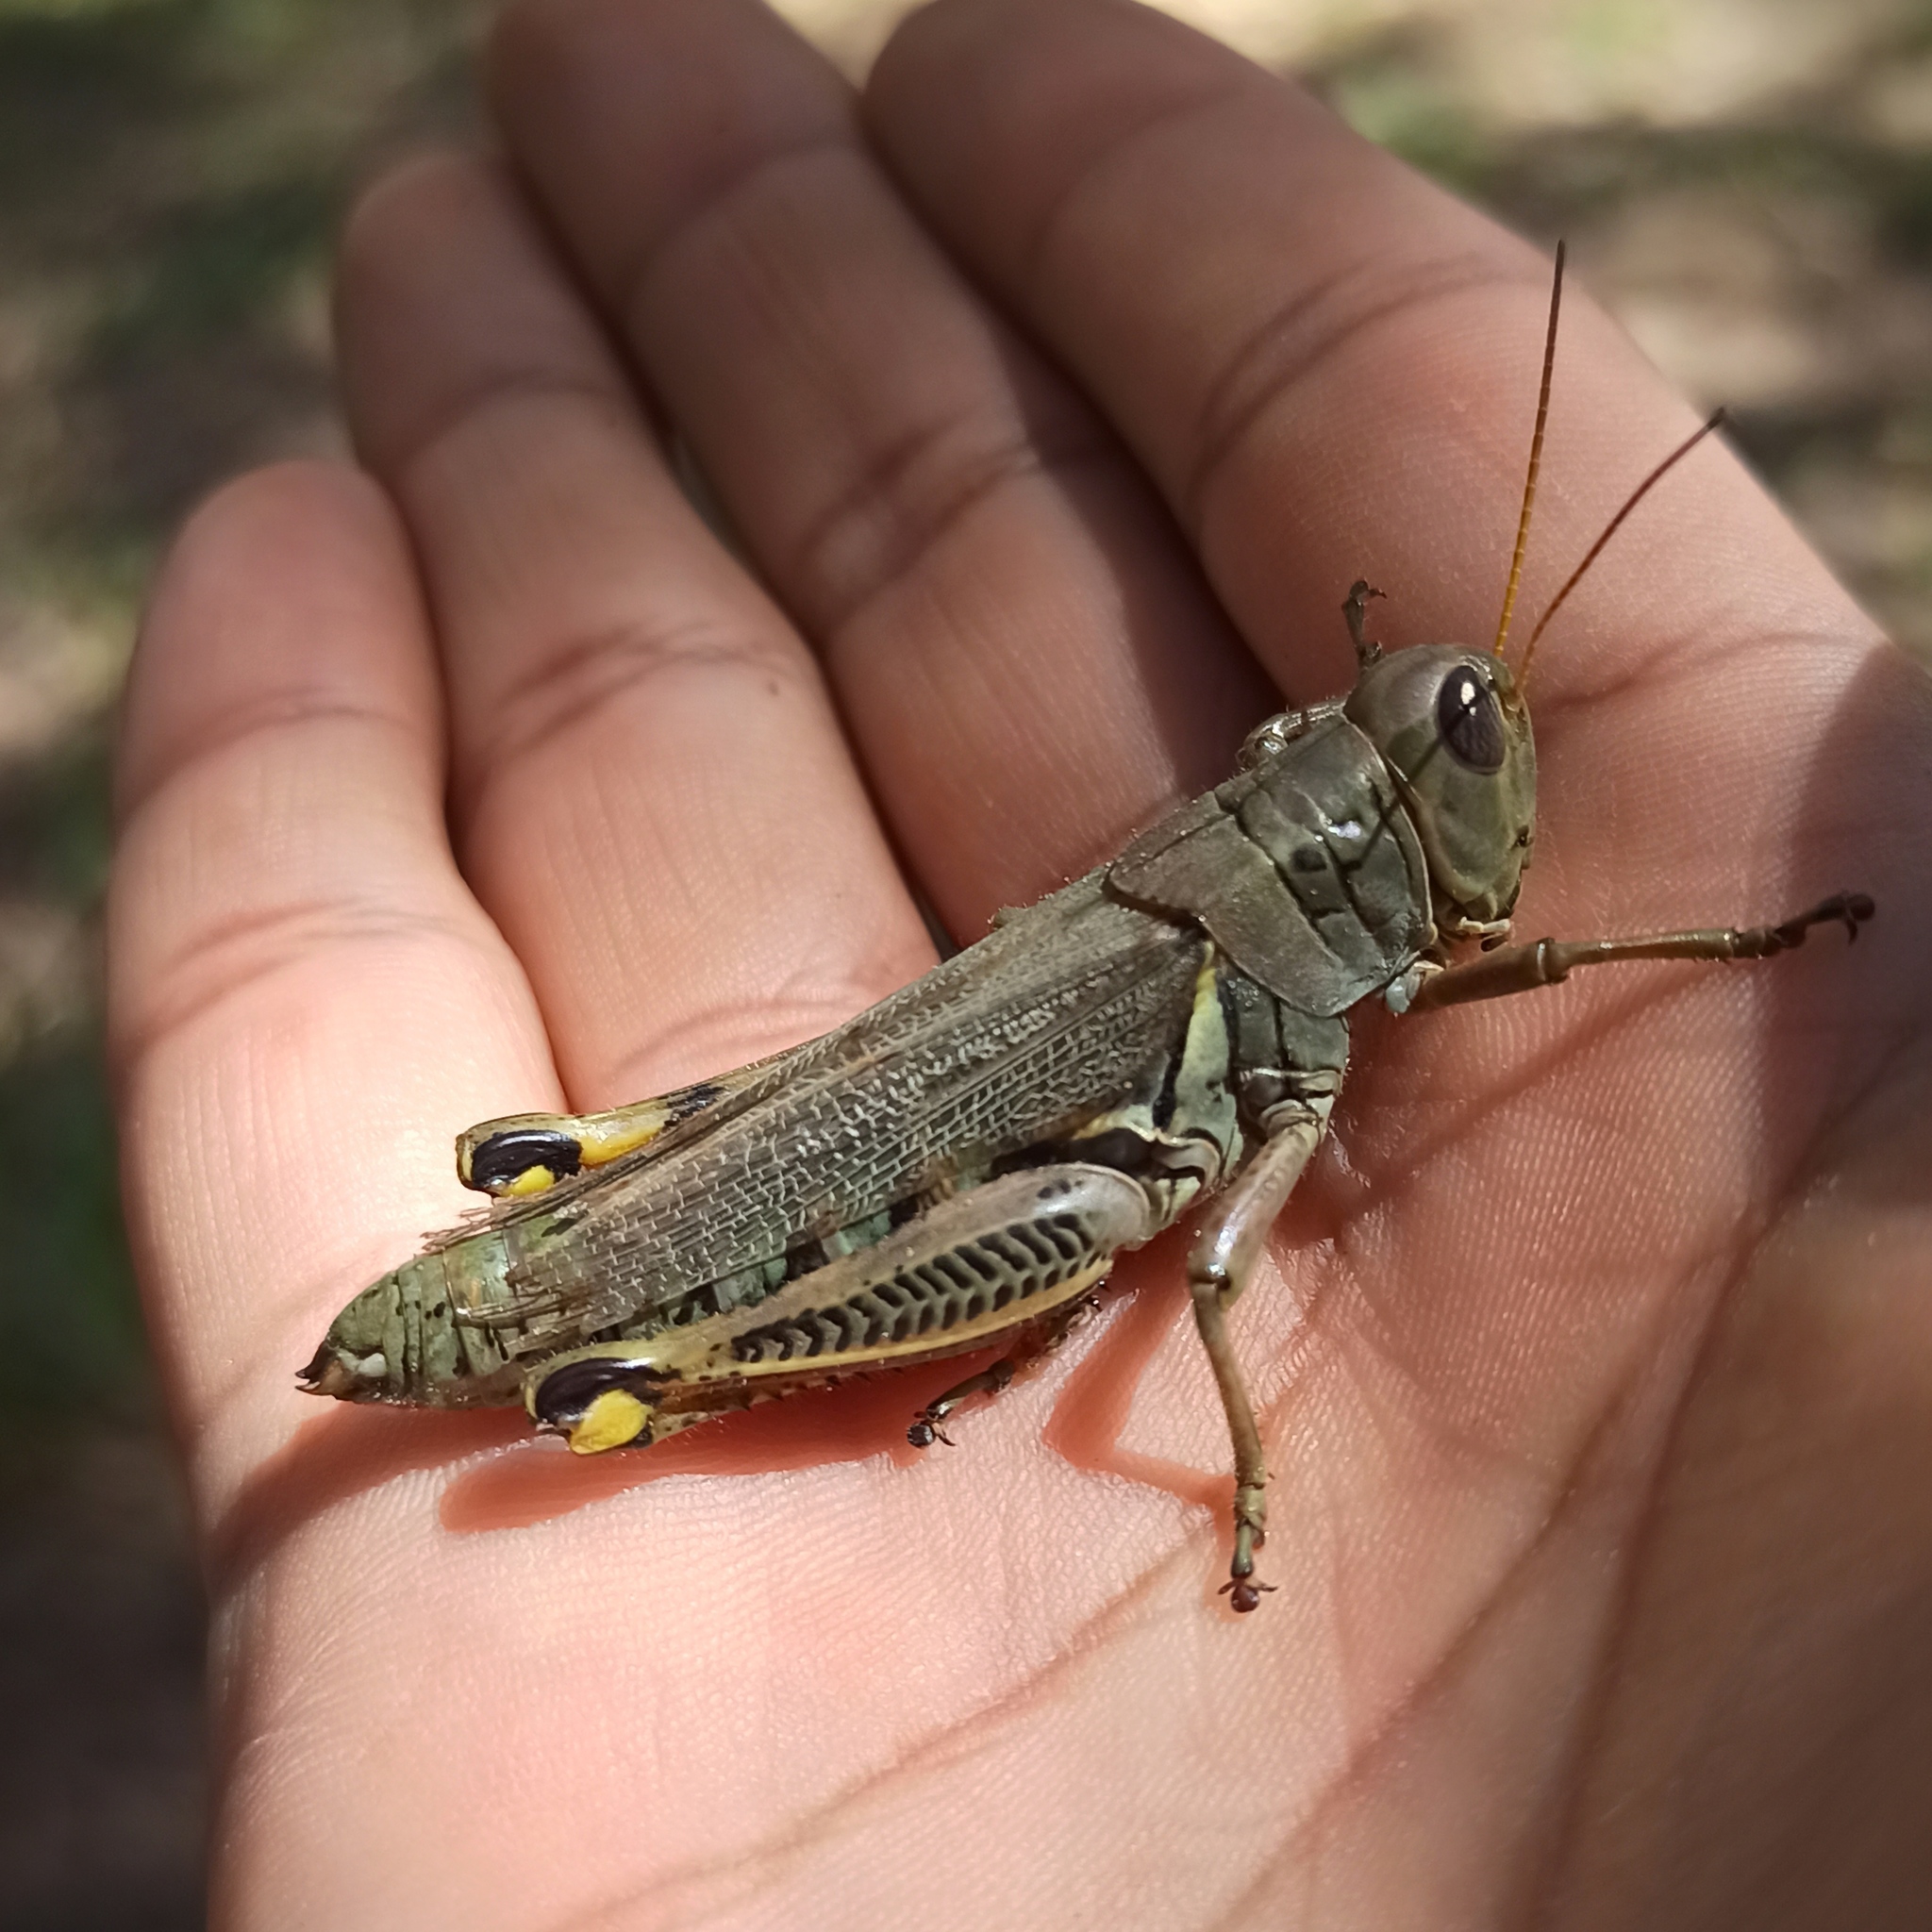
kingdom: Animalia
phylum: Arthropoda
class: Insecta
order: Orthoptera
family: Acrididae
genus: Melanoplus
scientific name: Melanoplus differentialis
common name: Differential grasshopper
